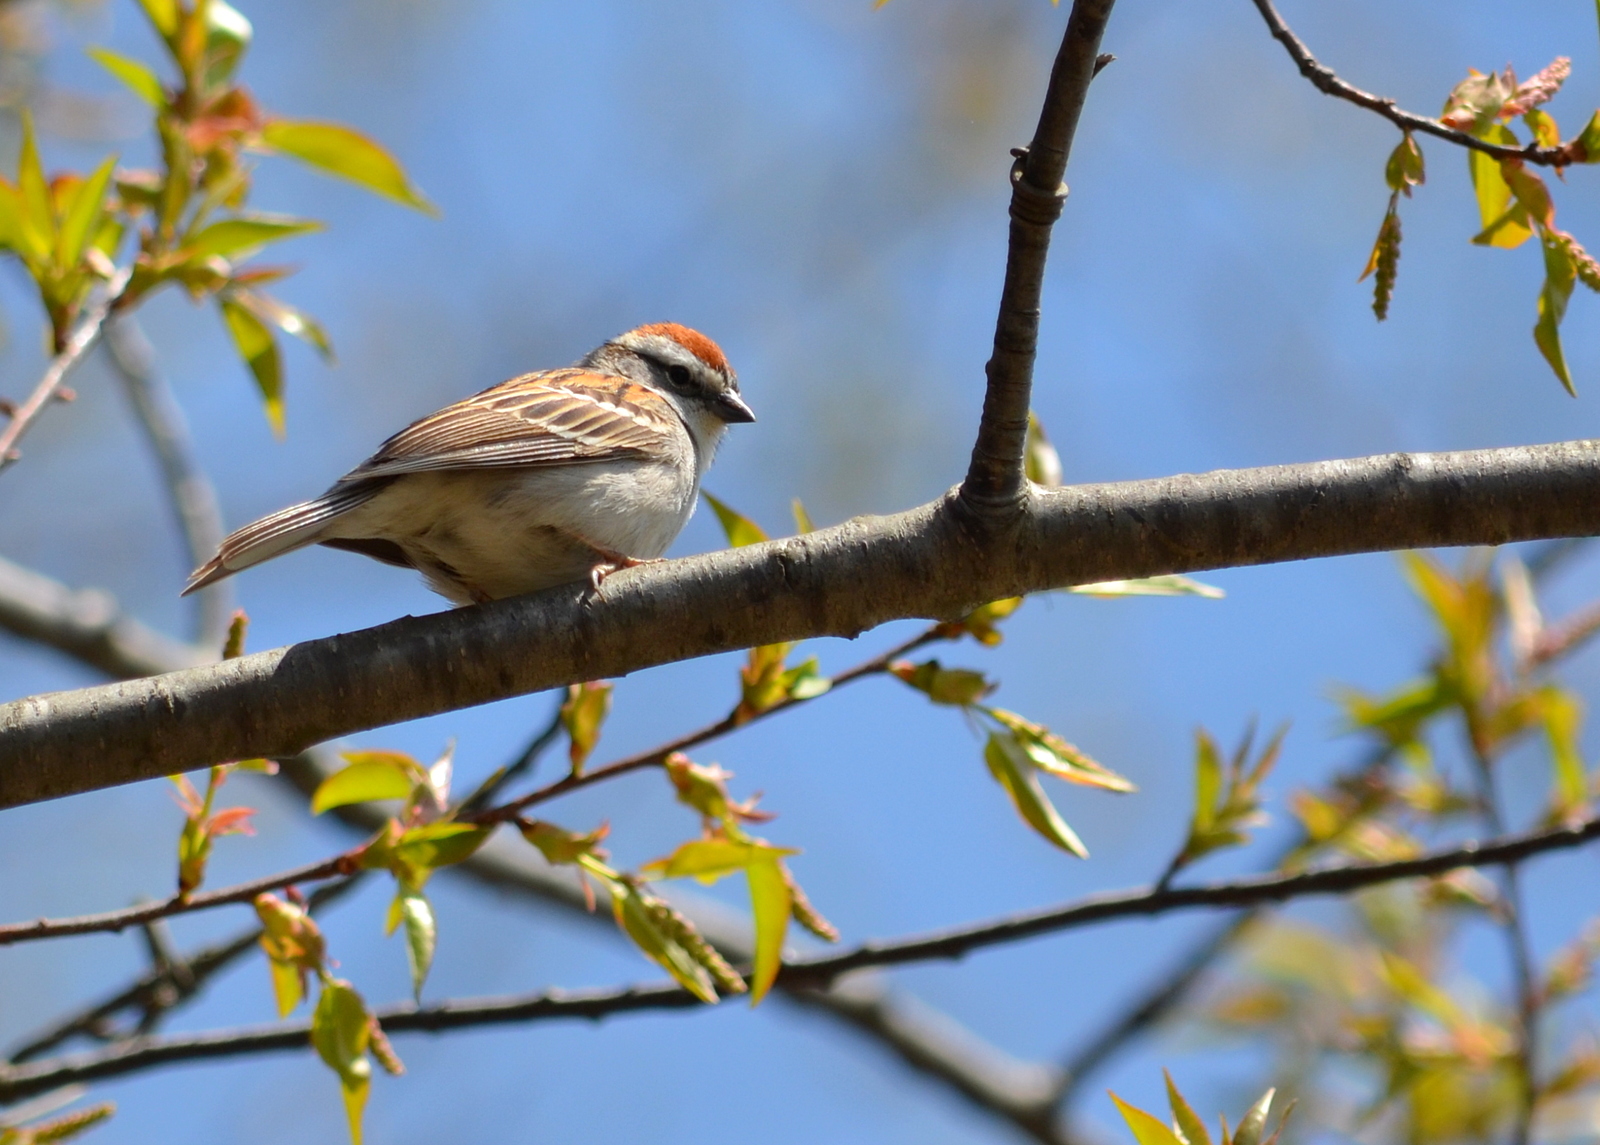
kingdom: Animalia
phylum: Chordata
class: Aves
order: Passeriformes
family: Passerellidae
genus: Spizella
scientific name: Spizella passerina
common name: Chipping sparrow
